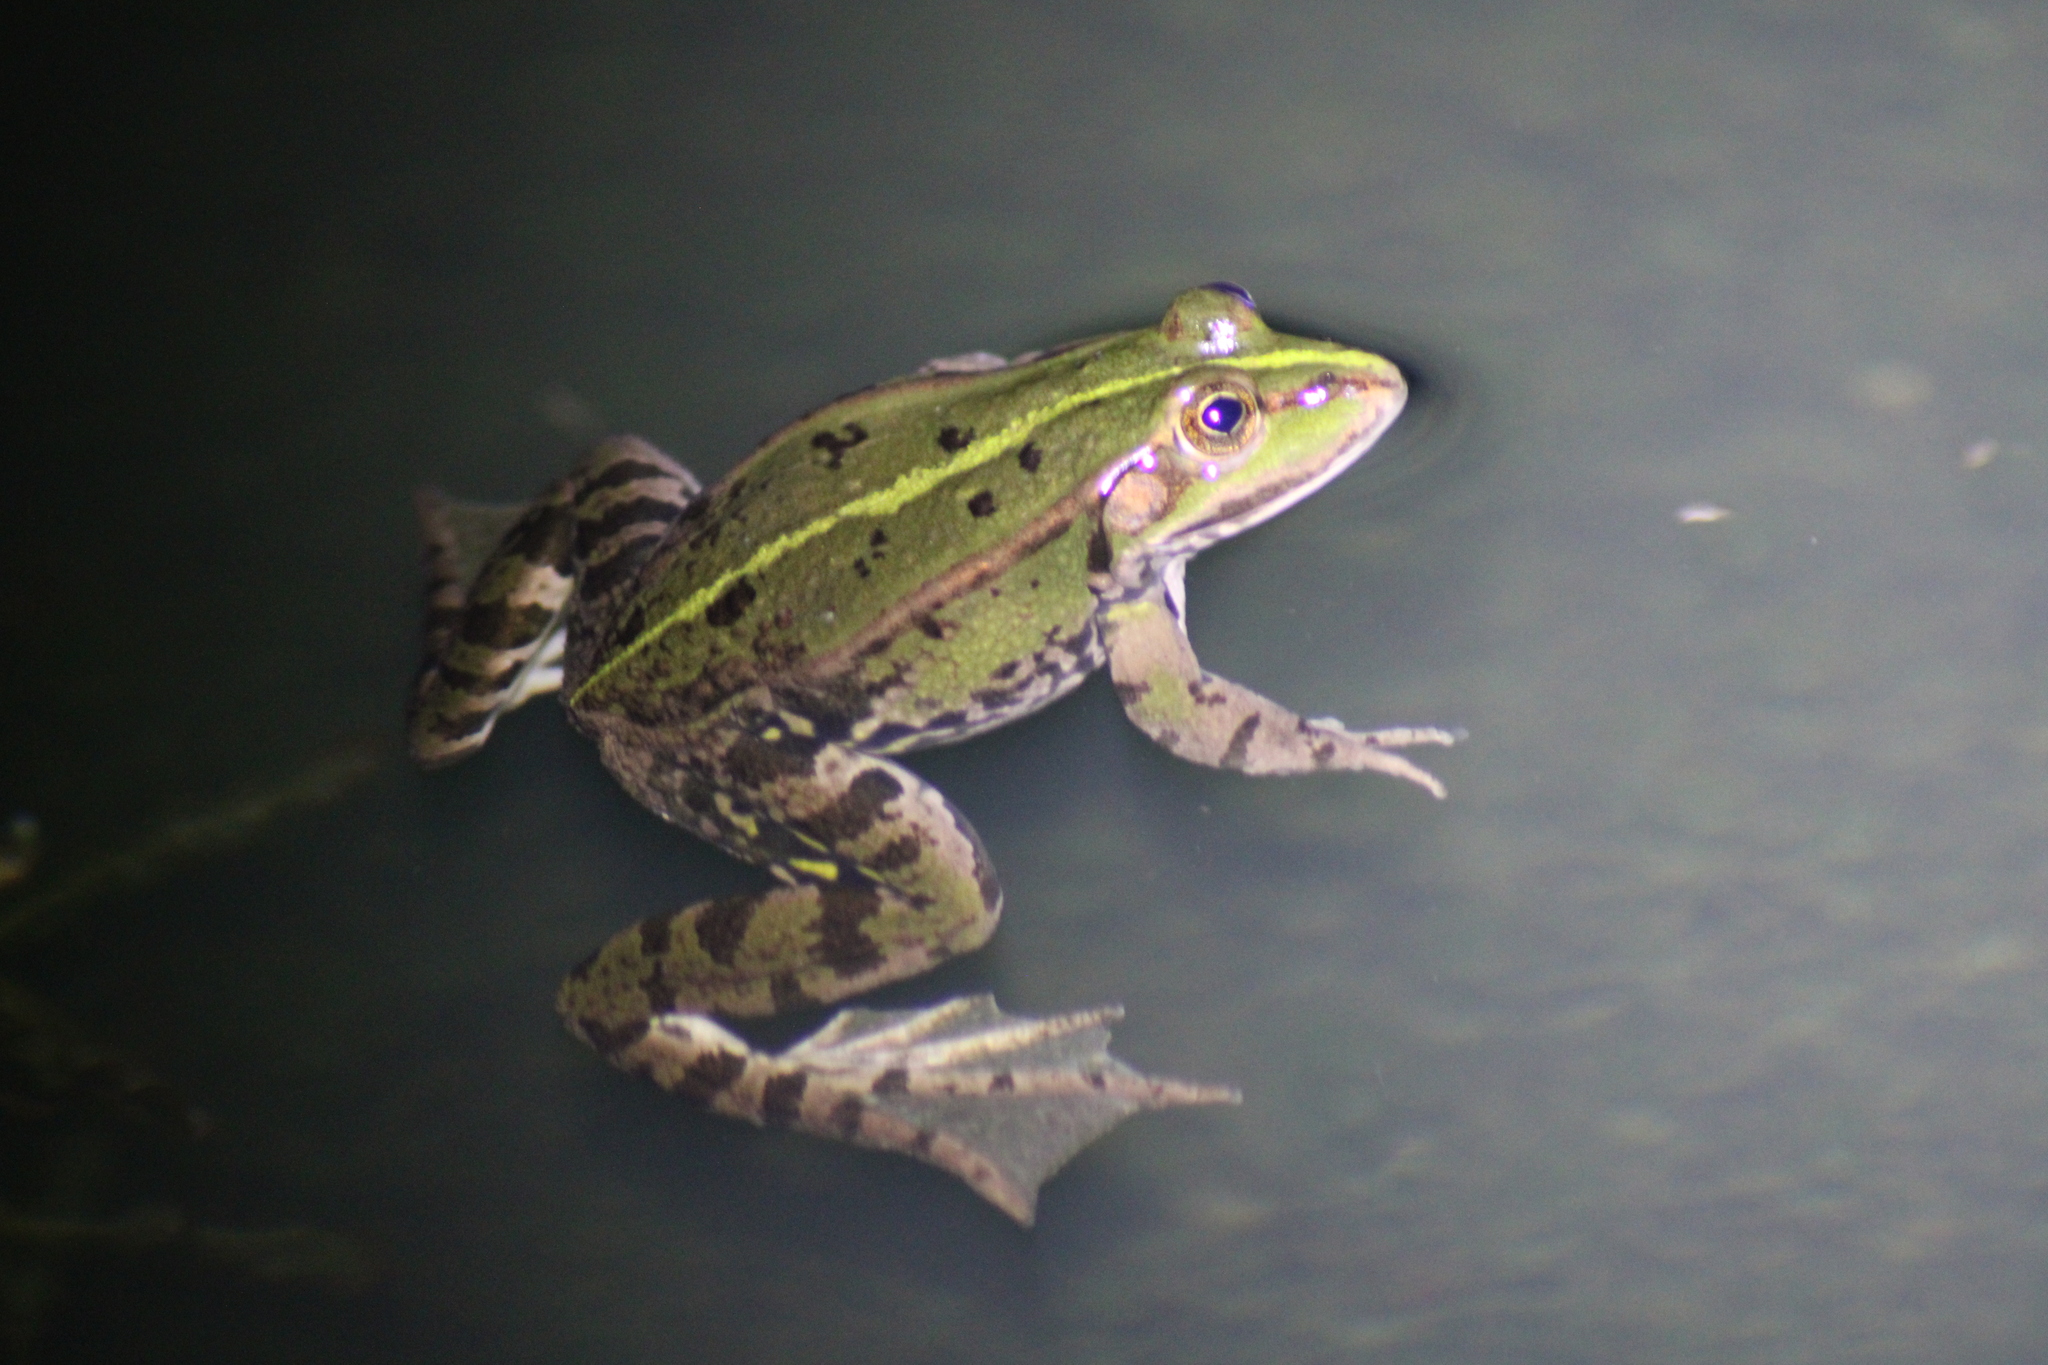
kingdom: Animalia
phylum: Chordata
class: Amphibia
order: Anura
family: Ranidae
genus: Pelophylax
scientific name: Pelophylax
